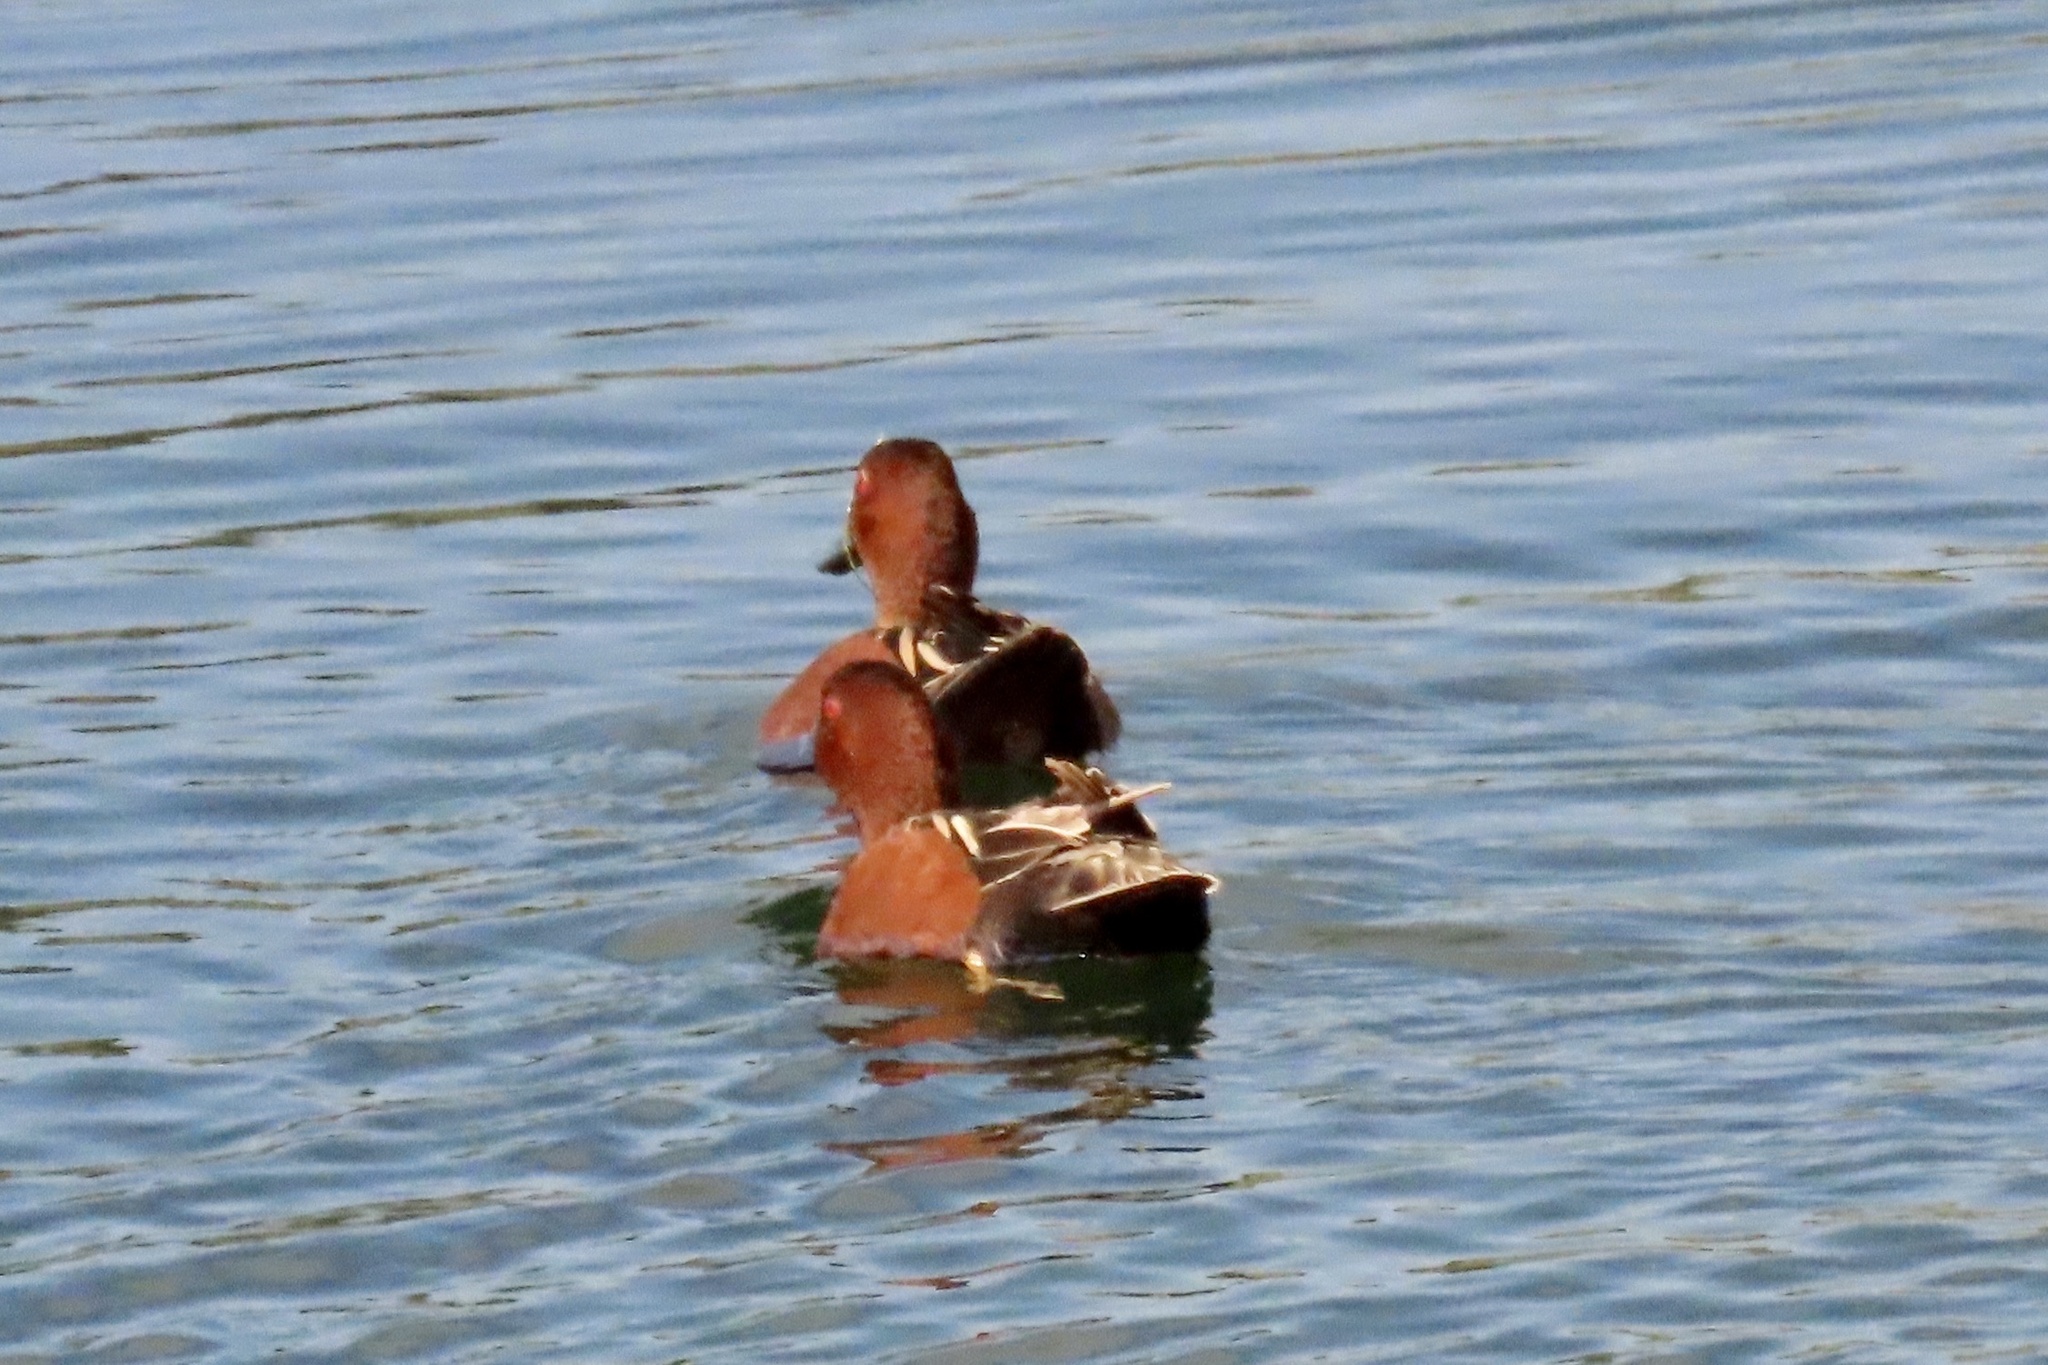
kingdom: Animalia
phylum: Chordata
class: Aves
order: Anseriformes
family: Anatidae
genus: Spatula
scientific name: Spatula cyanoptera
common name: Cinnamon teal
